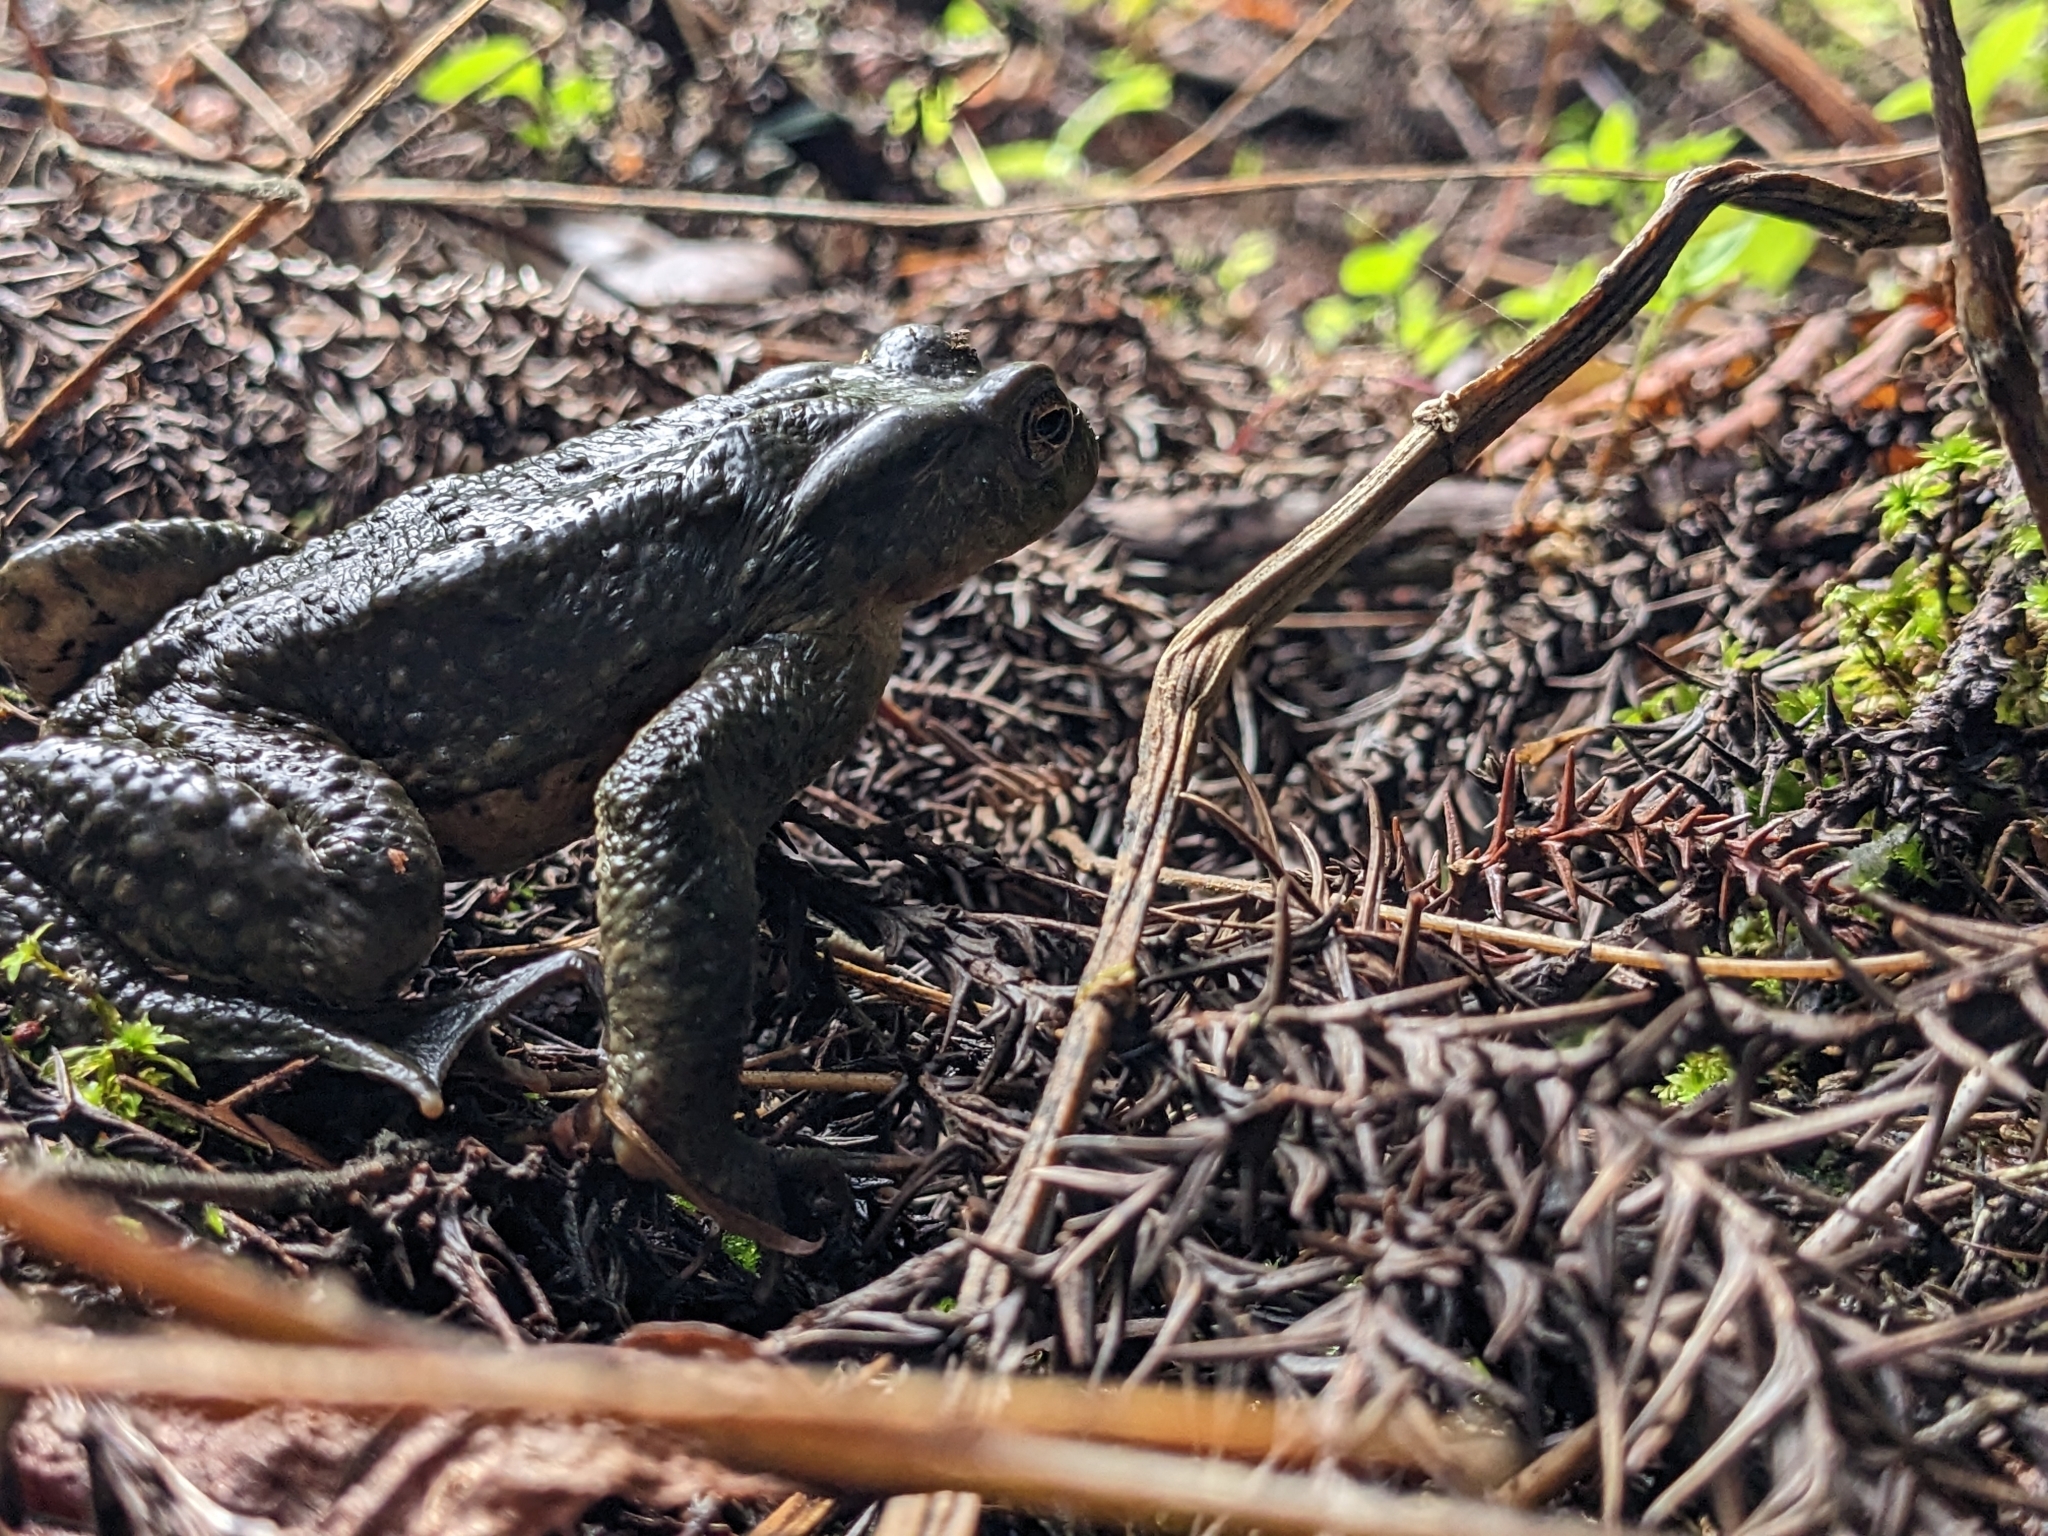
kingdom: Animalia
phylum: Chordata
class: Amphibia
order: Anura
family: Bufonidae
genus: Bufo
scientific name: Bufo bankorensis
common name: Bankor toad
